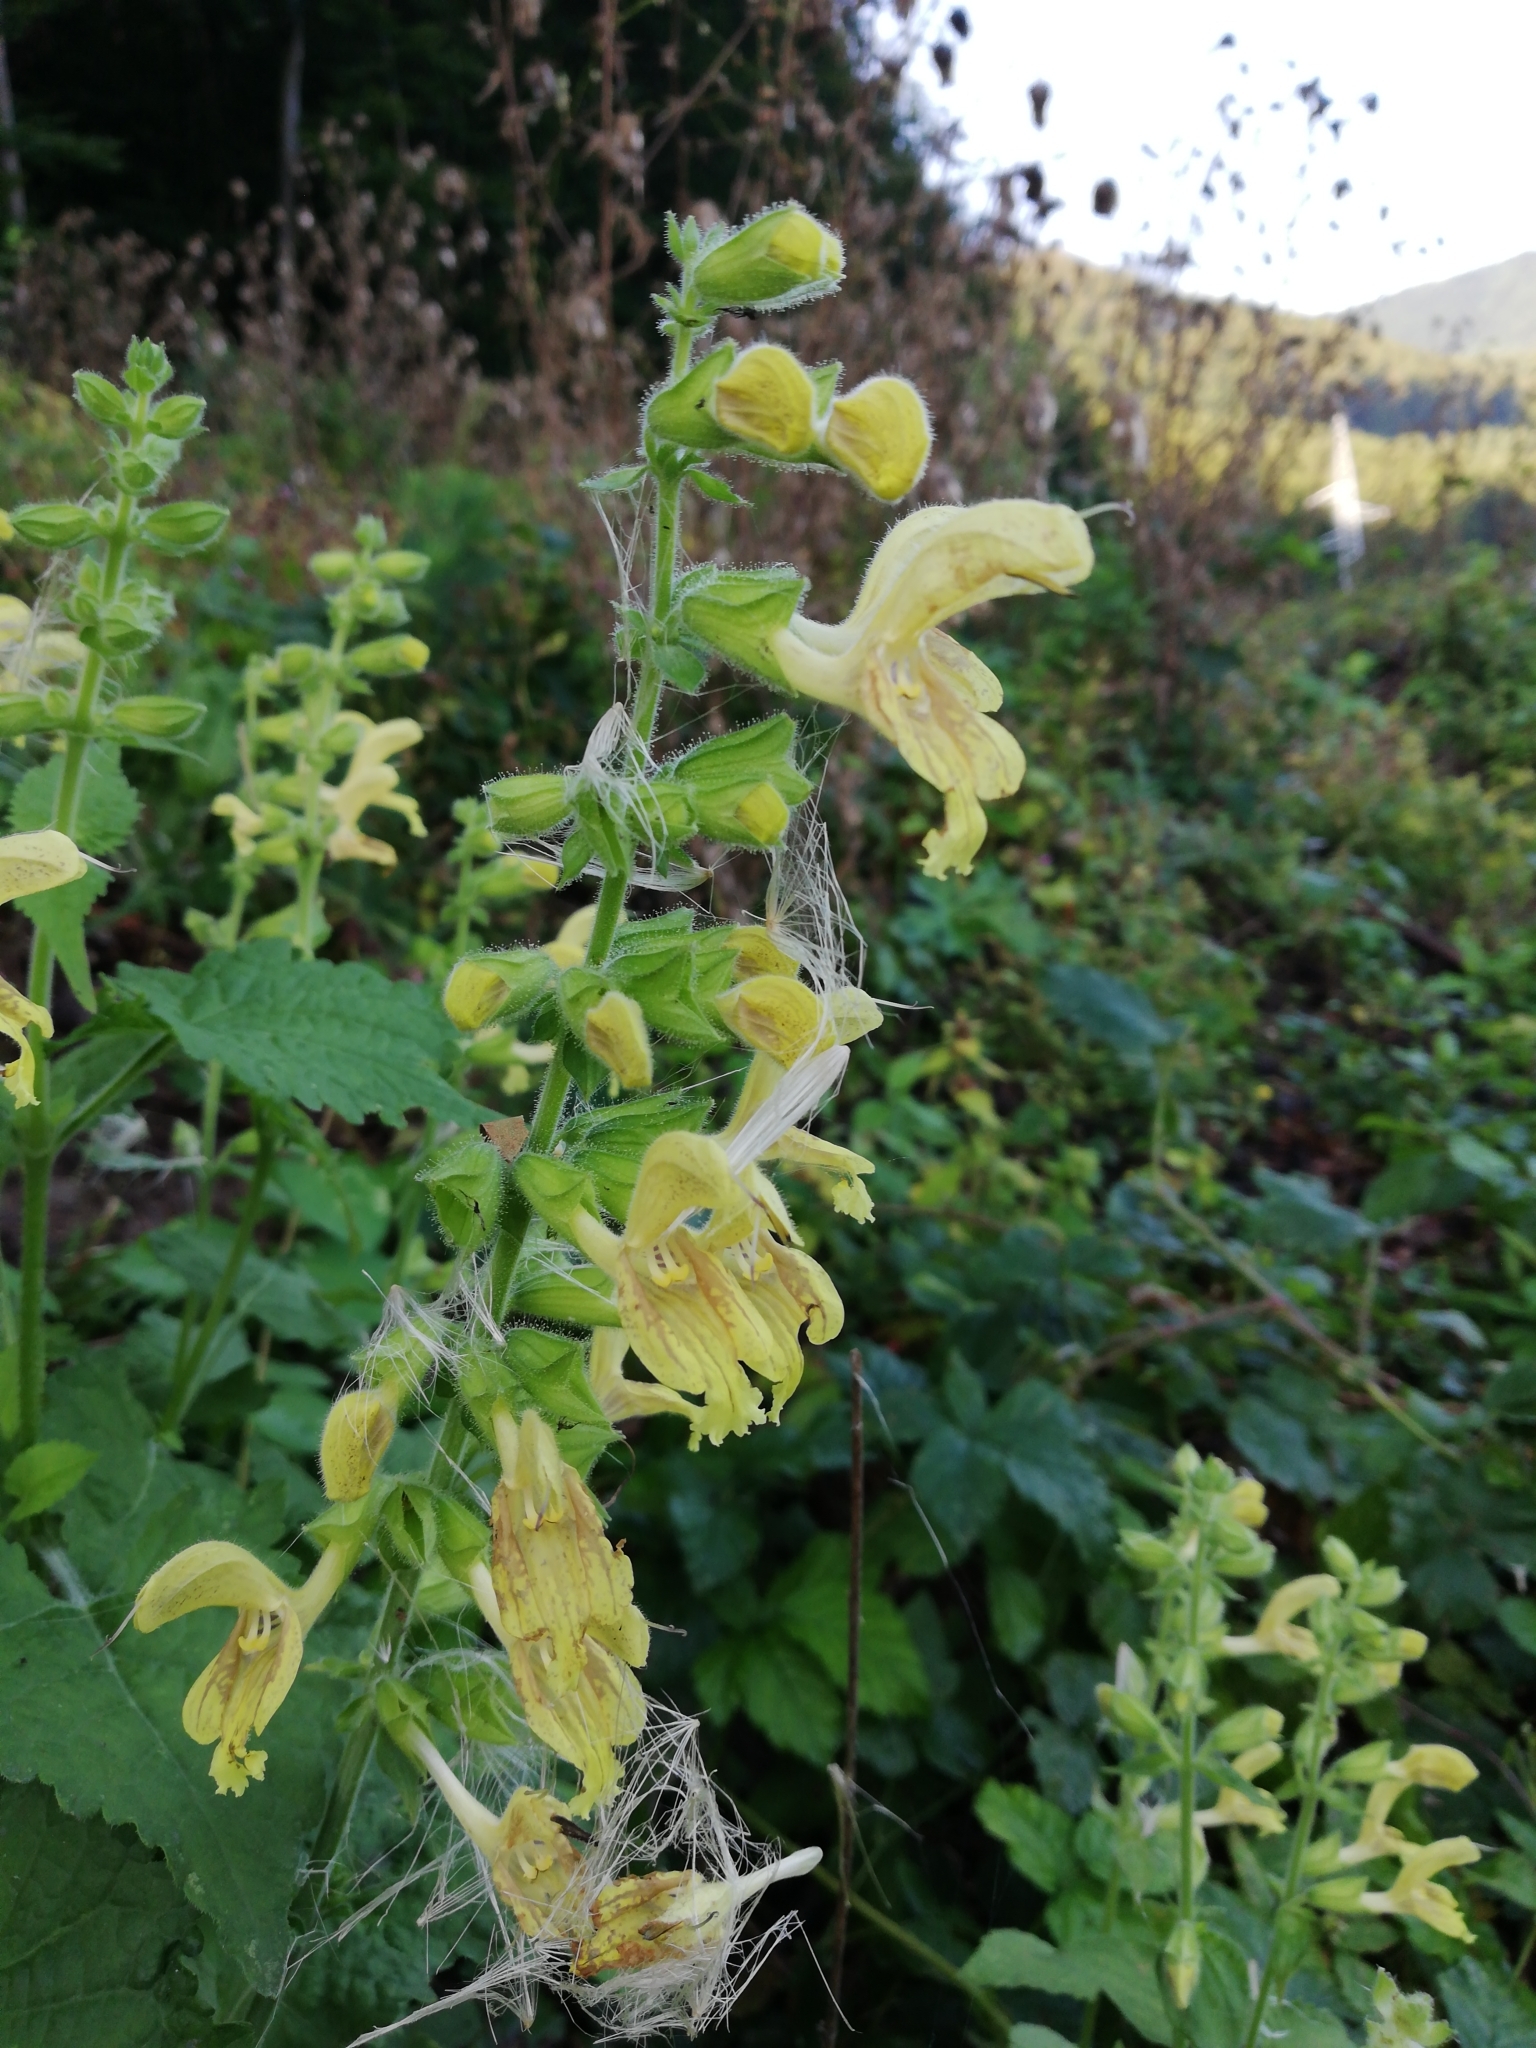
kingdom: Plantae
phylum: Tracheophyta
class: Magnoliopsida
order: Lamiales
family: Lamiaceae
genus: Salvia
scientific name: Salvia glutinosa
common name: Sticky clary
